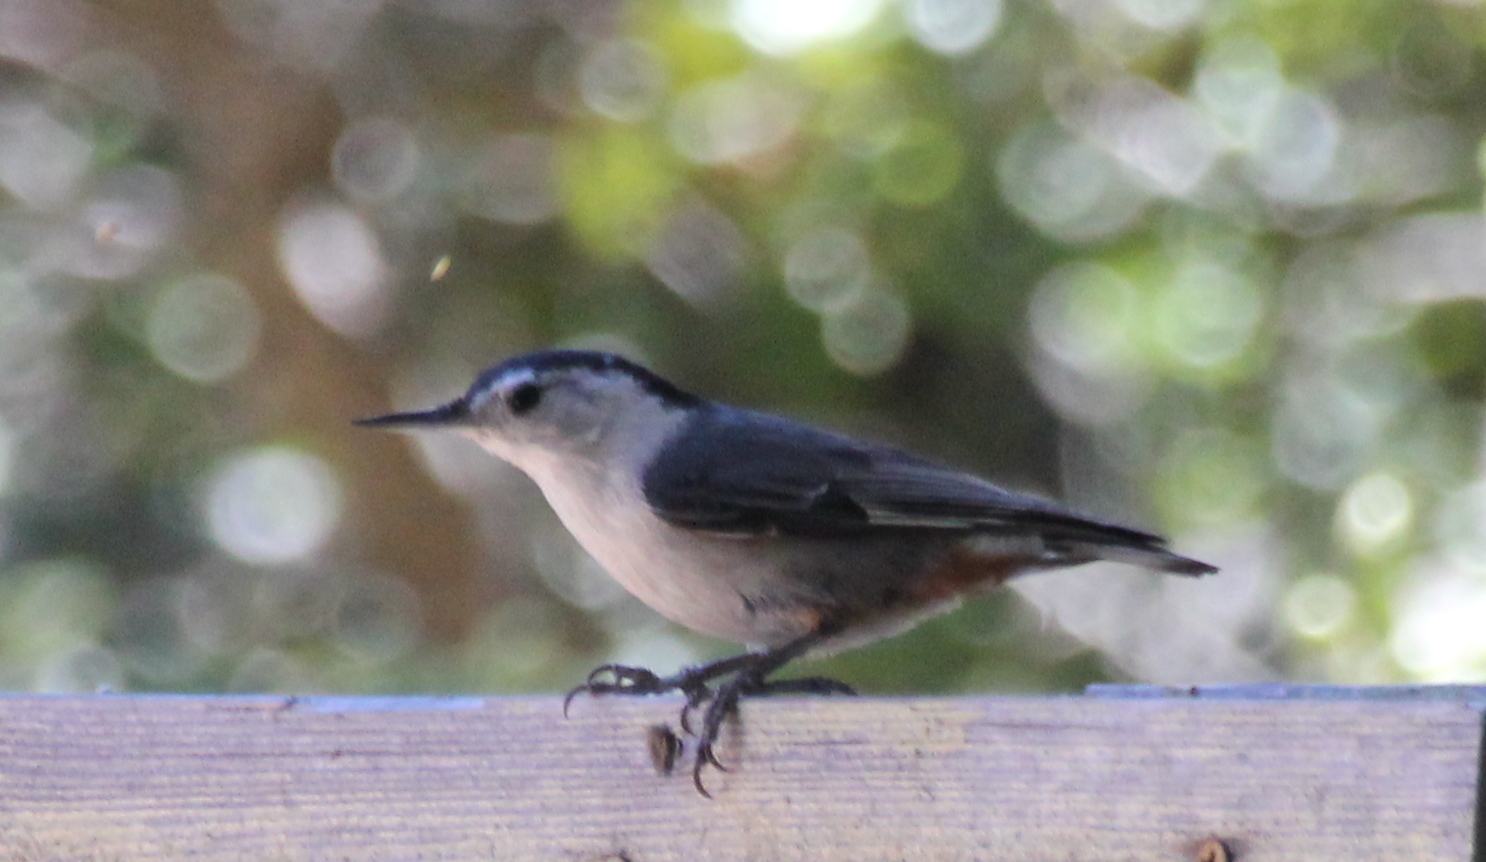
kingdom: Animalia
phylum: Chordata
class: Aves
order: Passeriformes
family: Sittidae
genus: Sitta
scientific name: Sitta carolinensis
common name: White-breasted nuthatch
